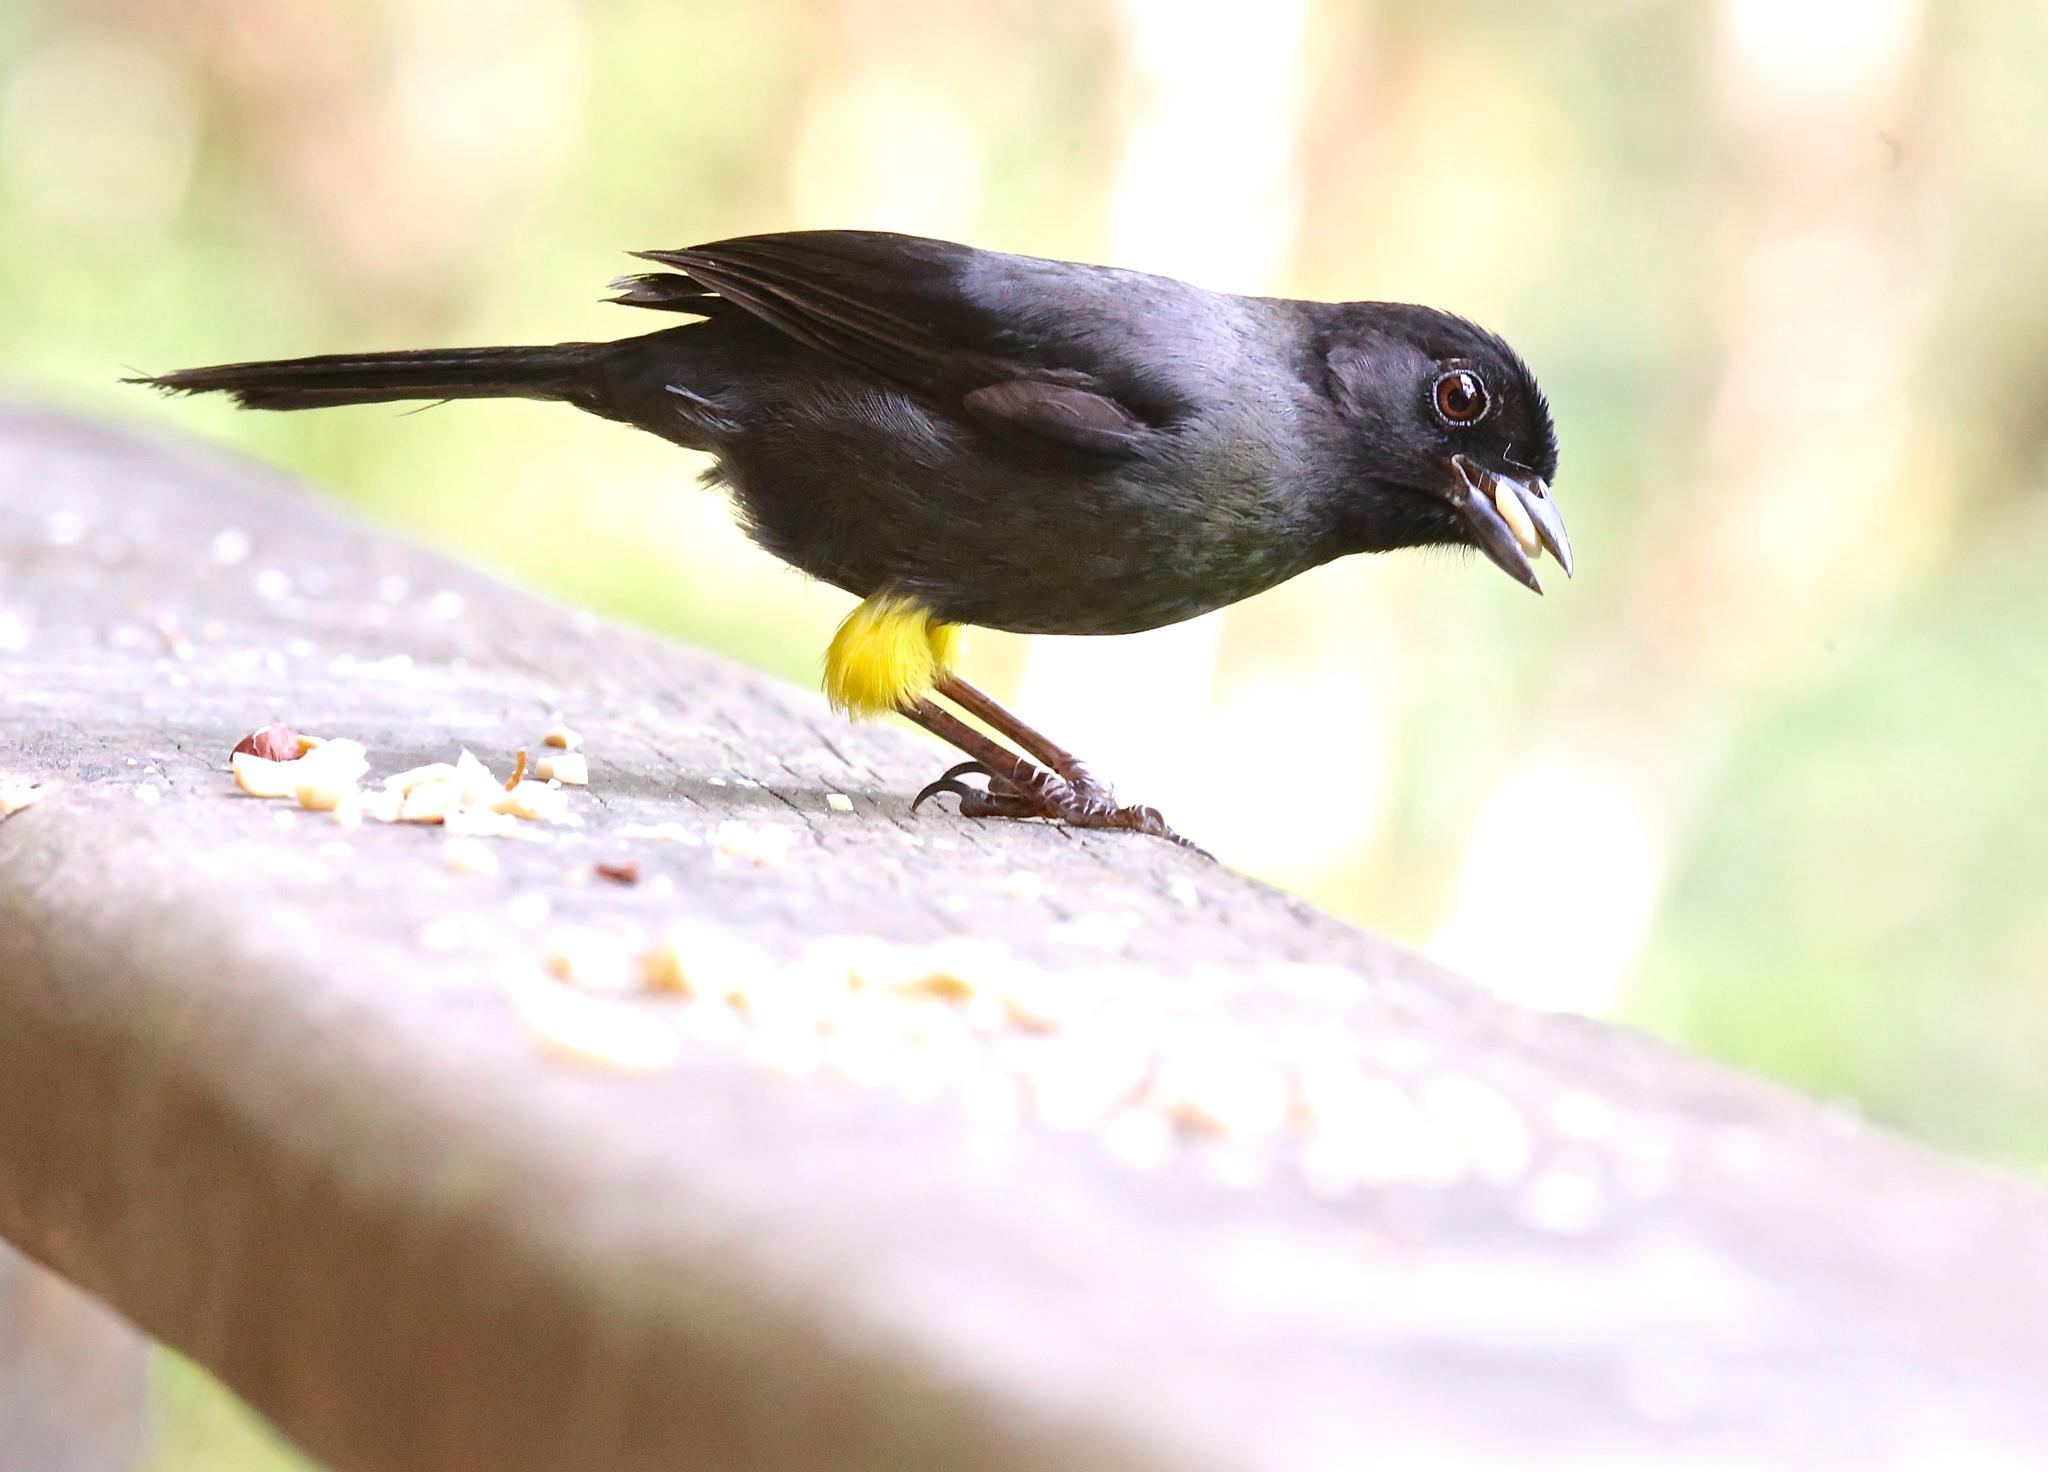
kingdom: Animalia
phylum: Chordata
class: Aves
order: Passeriformes
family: Passerellidae
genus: Atlapetes
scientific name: Atlapetes tibialis
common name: Yellow-thighed brushfinch
